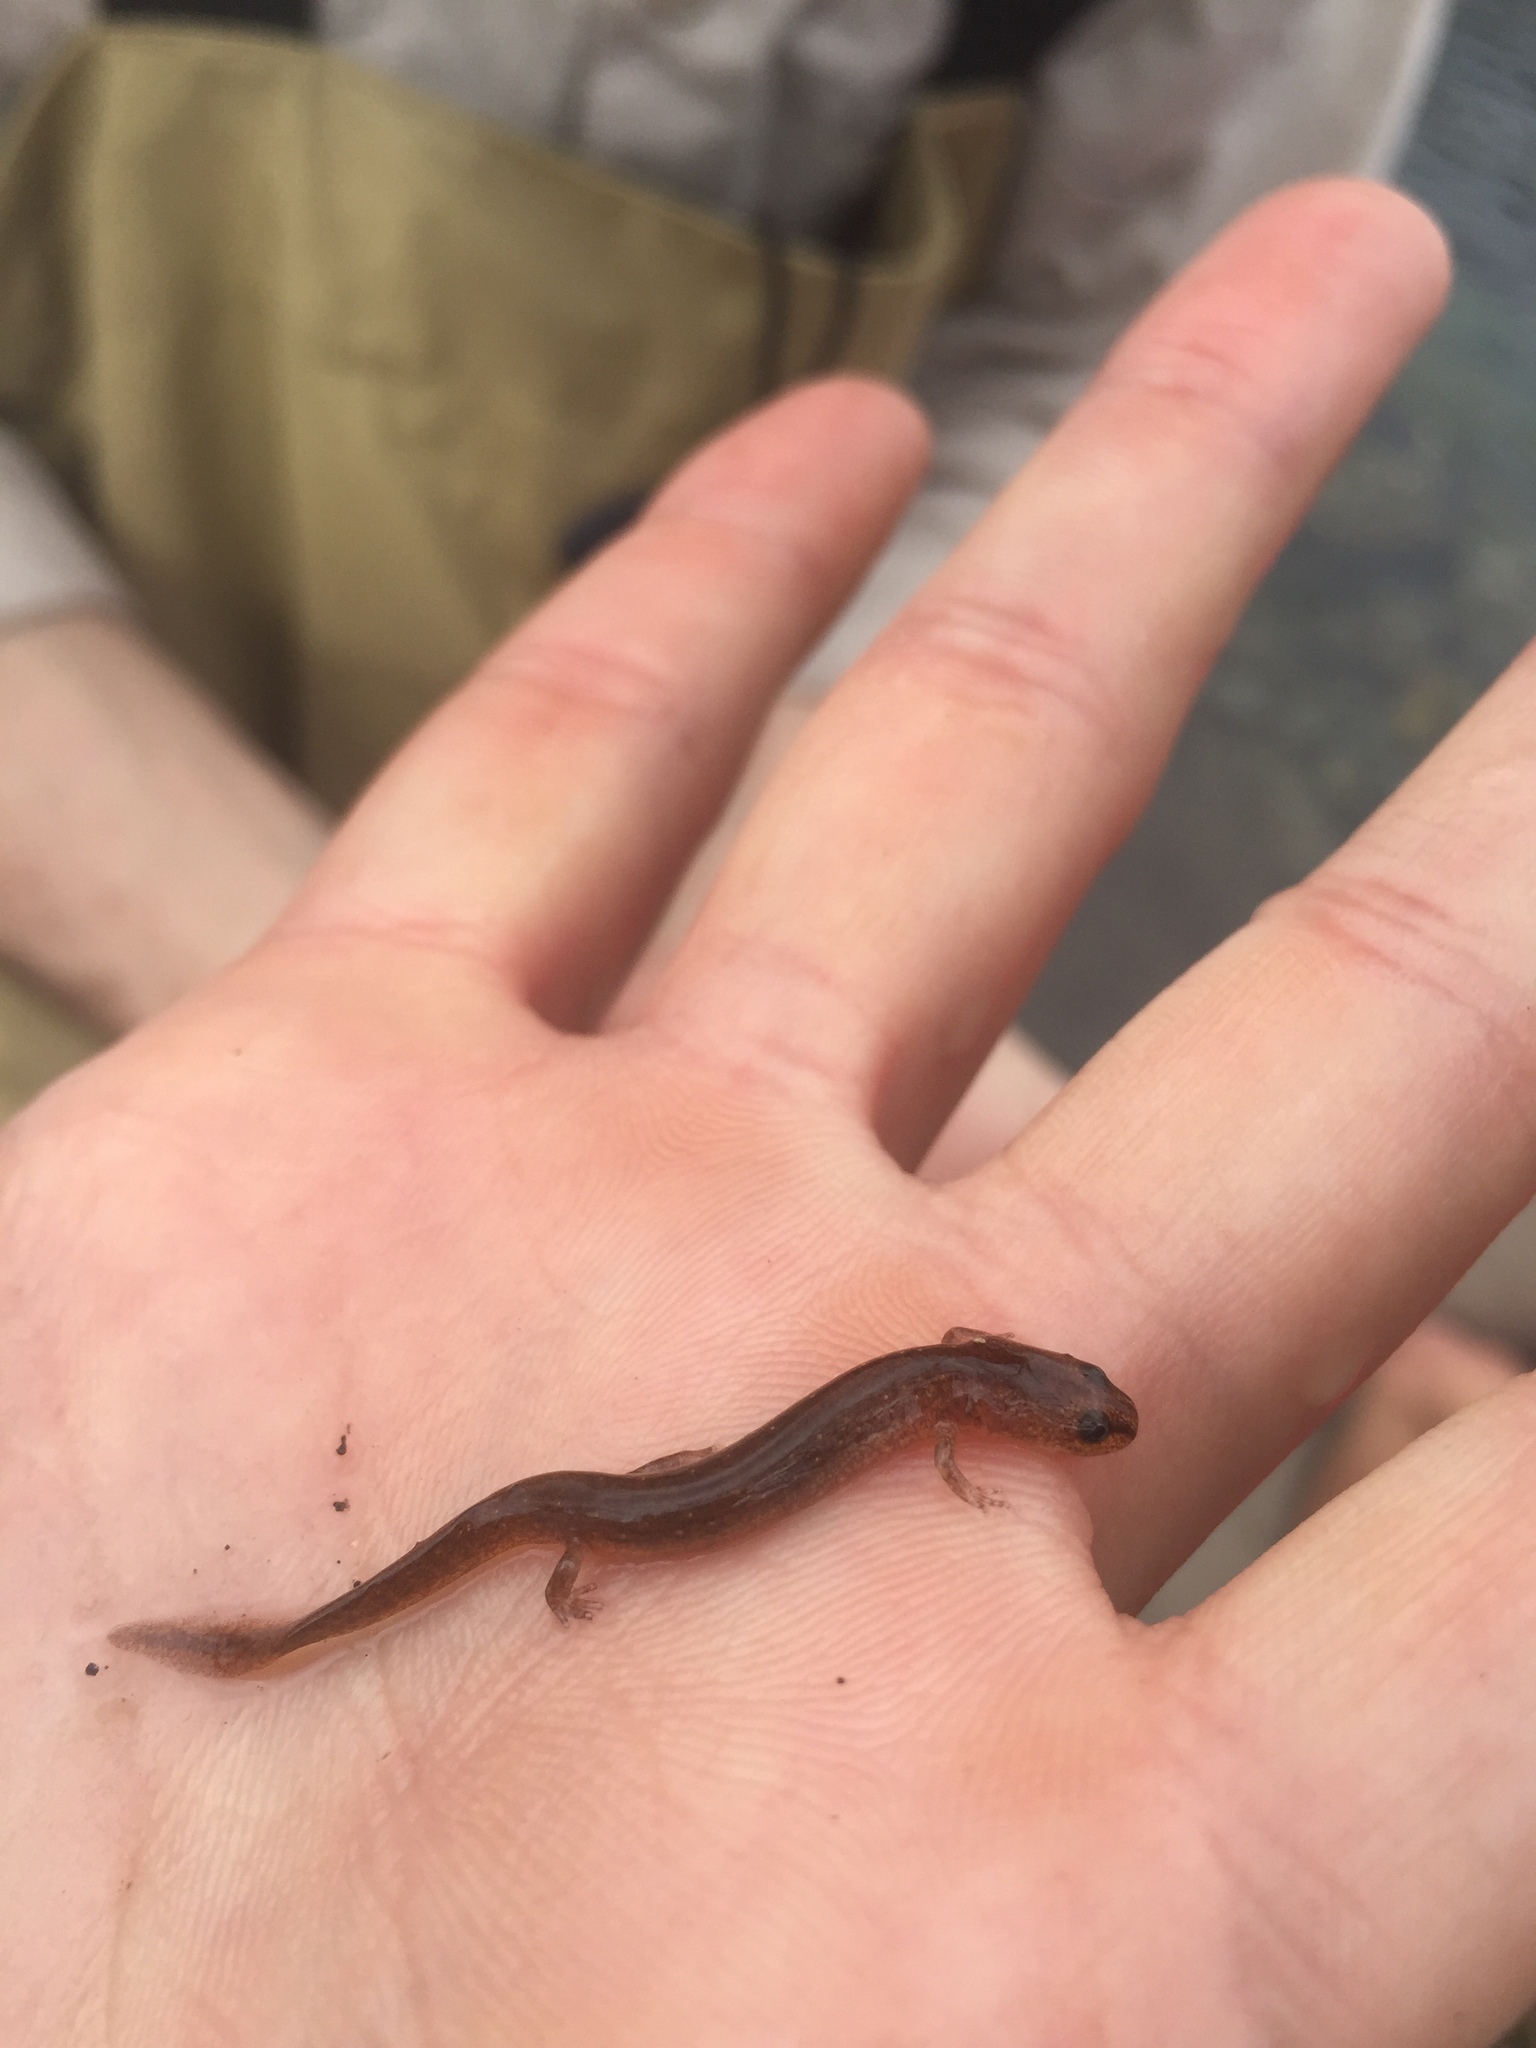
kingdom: Animalia
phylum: Chordata
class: Amphibia
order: Caudata
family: Plethodontidae
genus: Eurycea
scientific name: Eurycea troglodytes
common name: Valdina farms salamander
